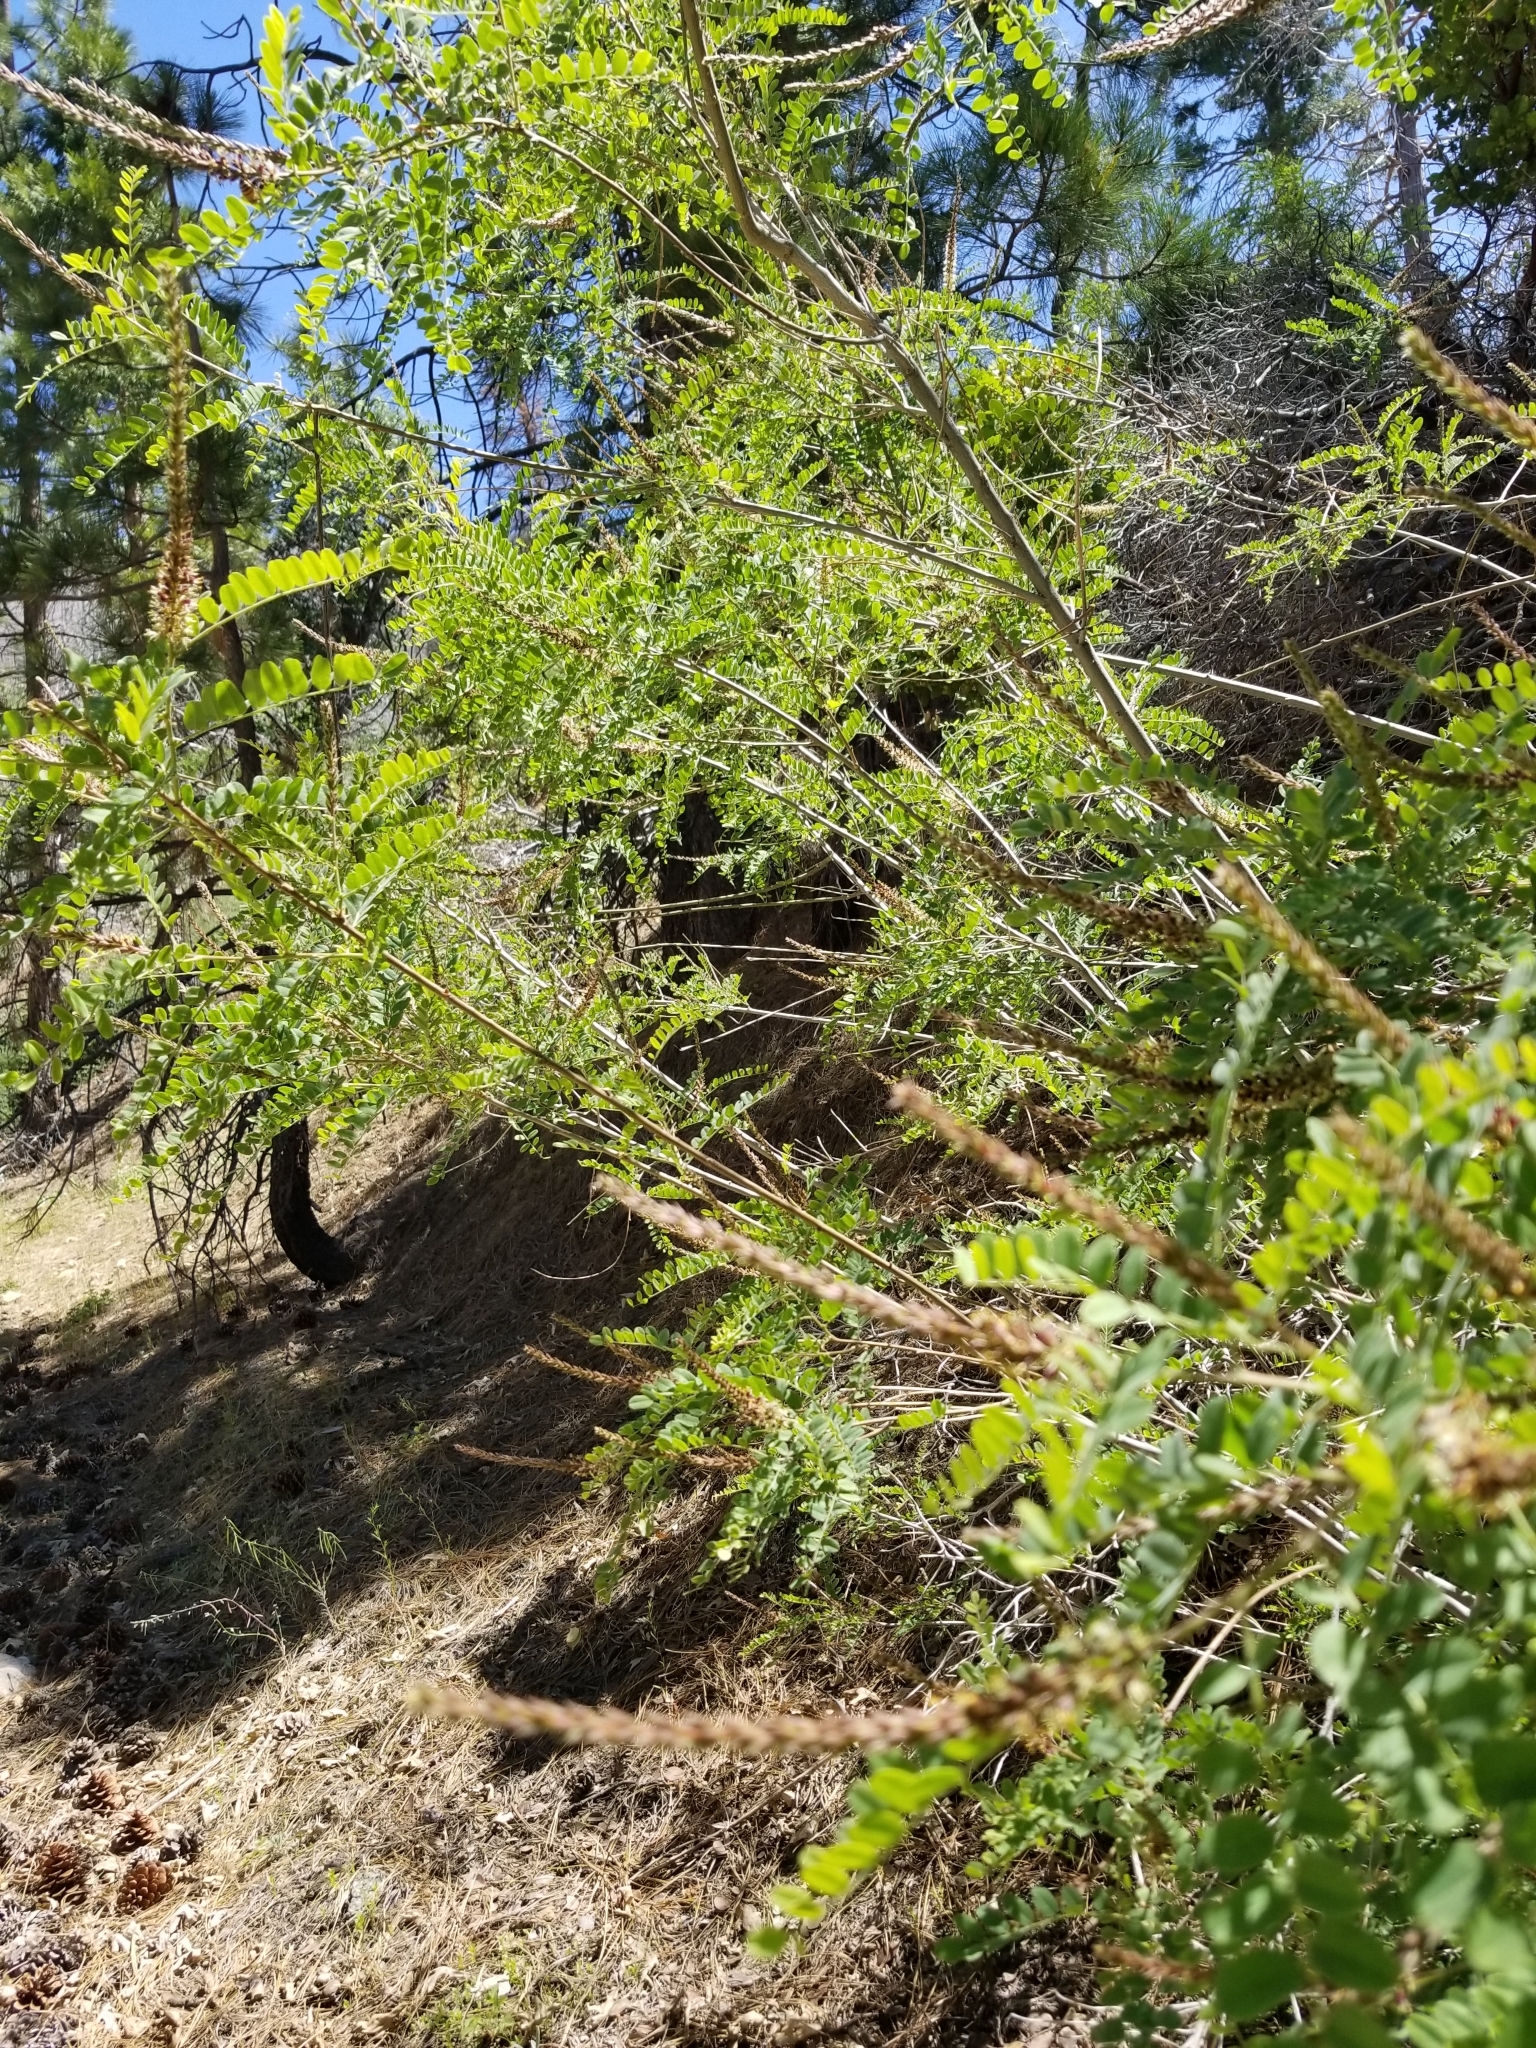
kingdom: Plantae
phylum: Tracheophyta
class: Magnoliopsida
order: Fabales
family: Fabaceae
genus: Amorpha
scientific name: Amorpha californica
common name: California indigobush
